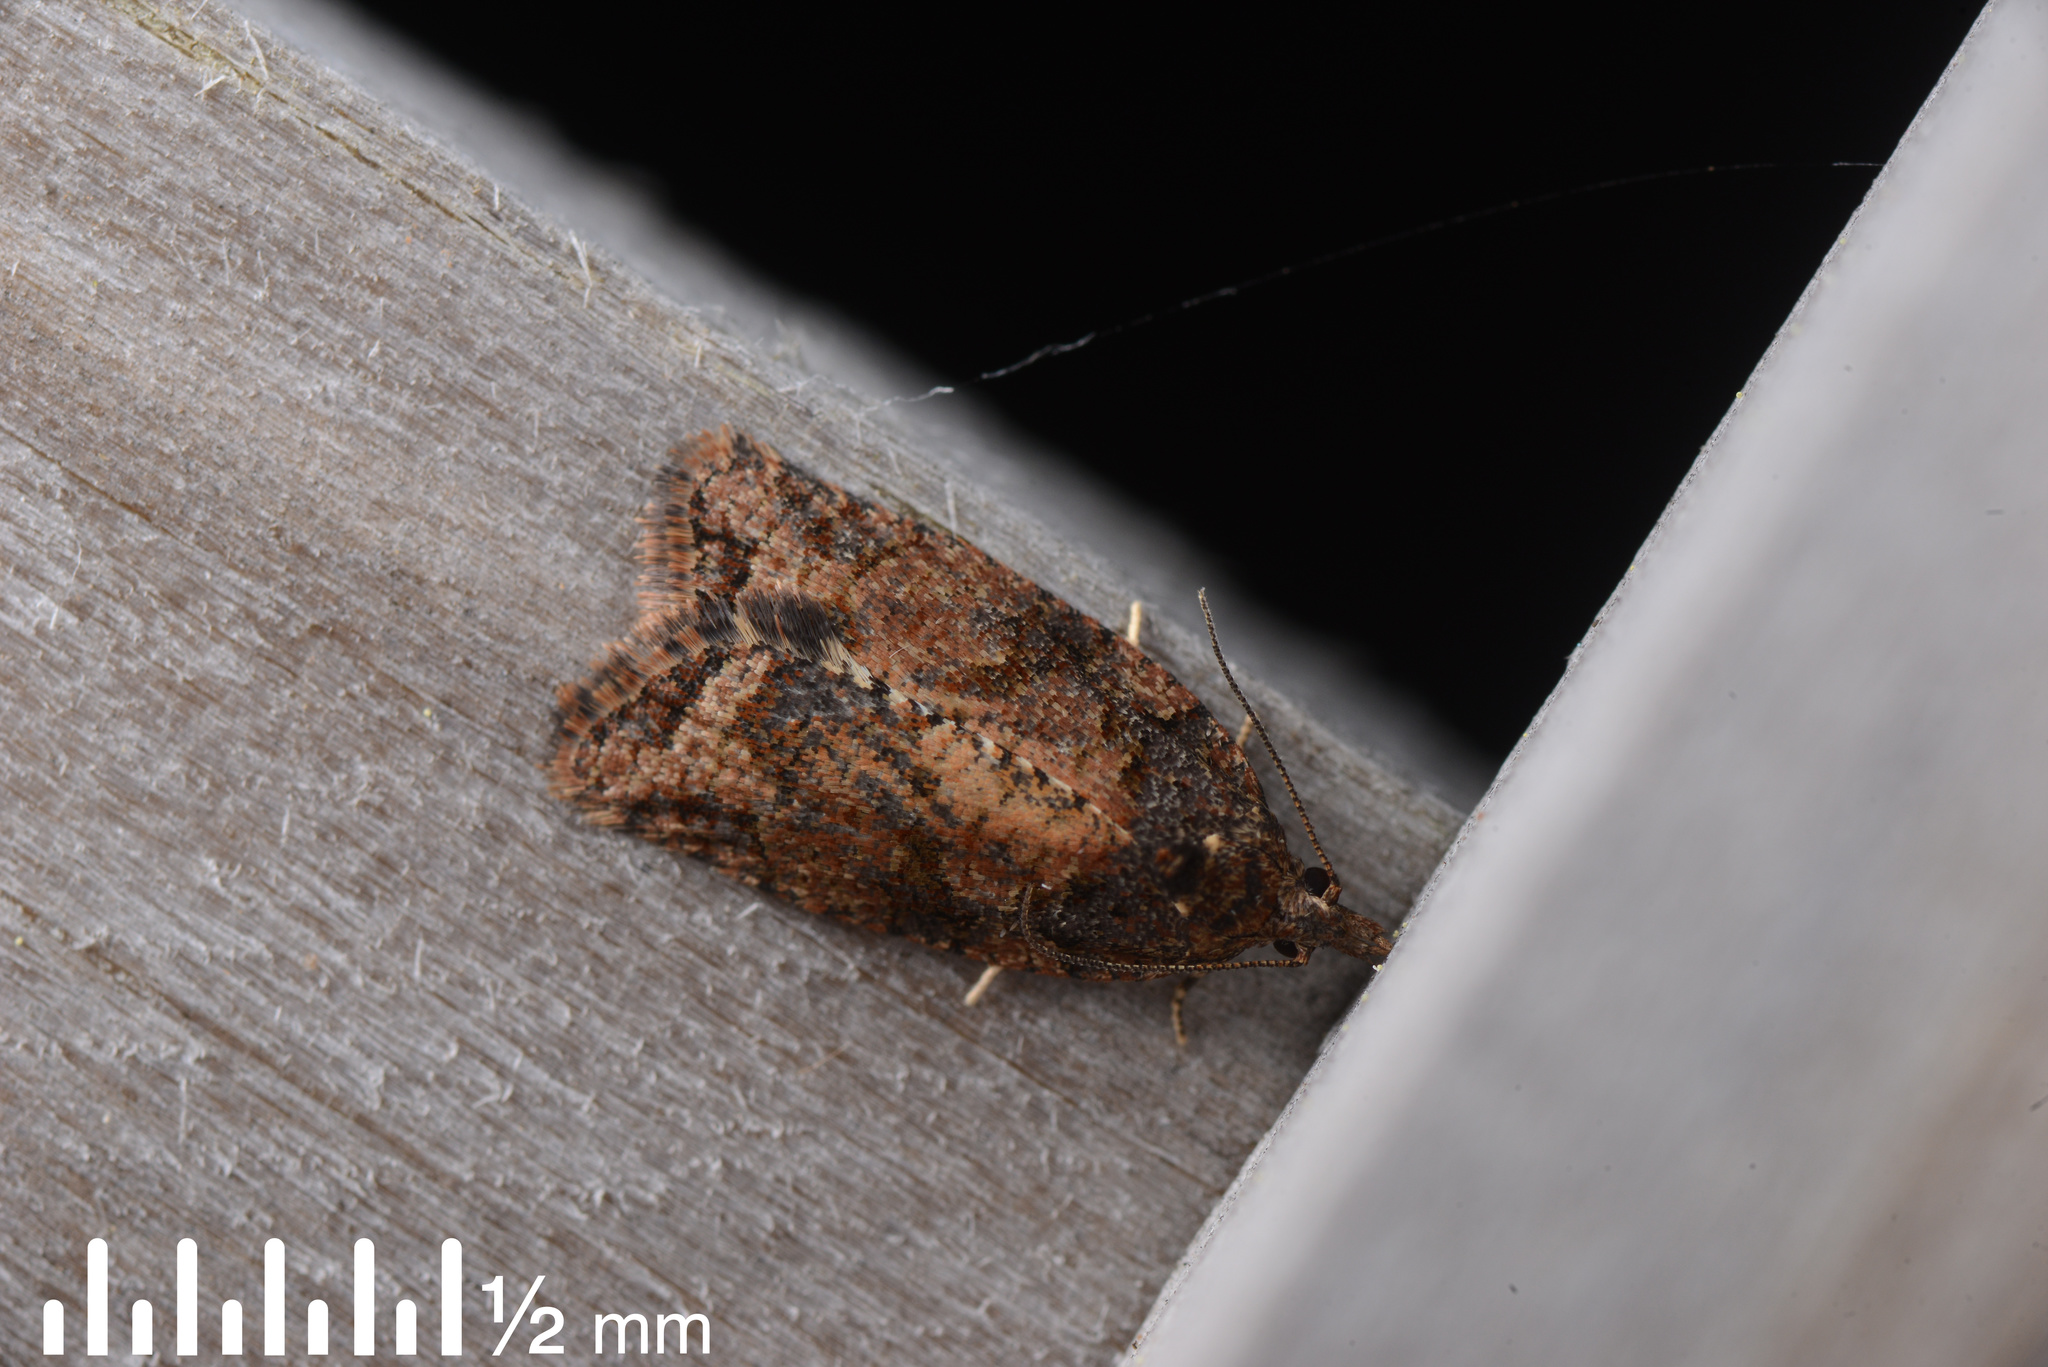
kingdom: Animalia
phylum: Arthropoda
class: Insecta
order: Lepidoptera
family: Tortricidae
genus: Capua
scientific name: Capua intractana
